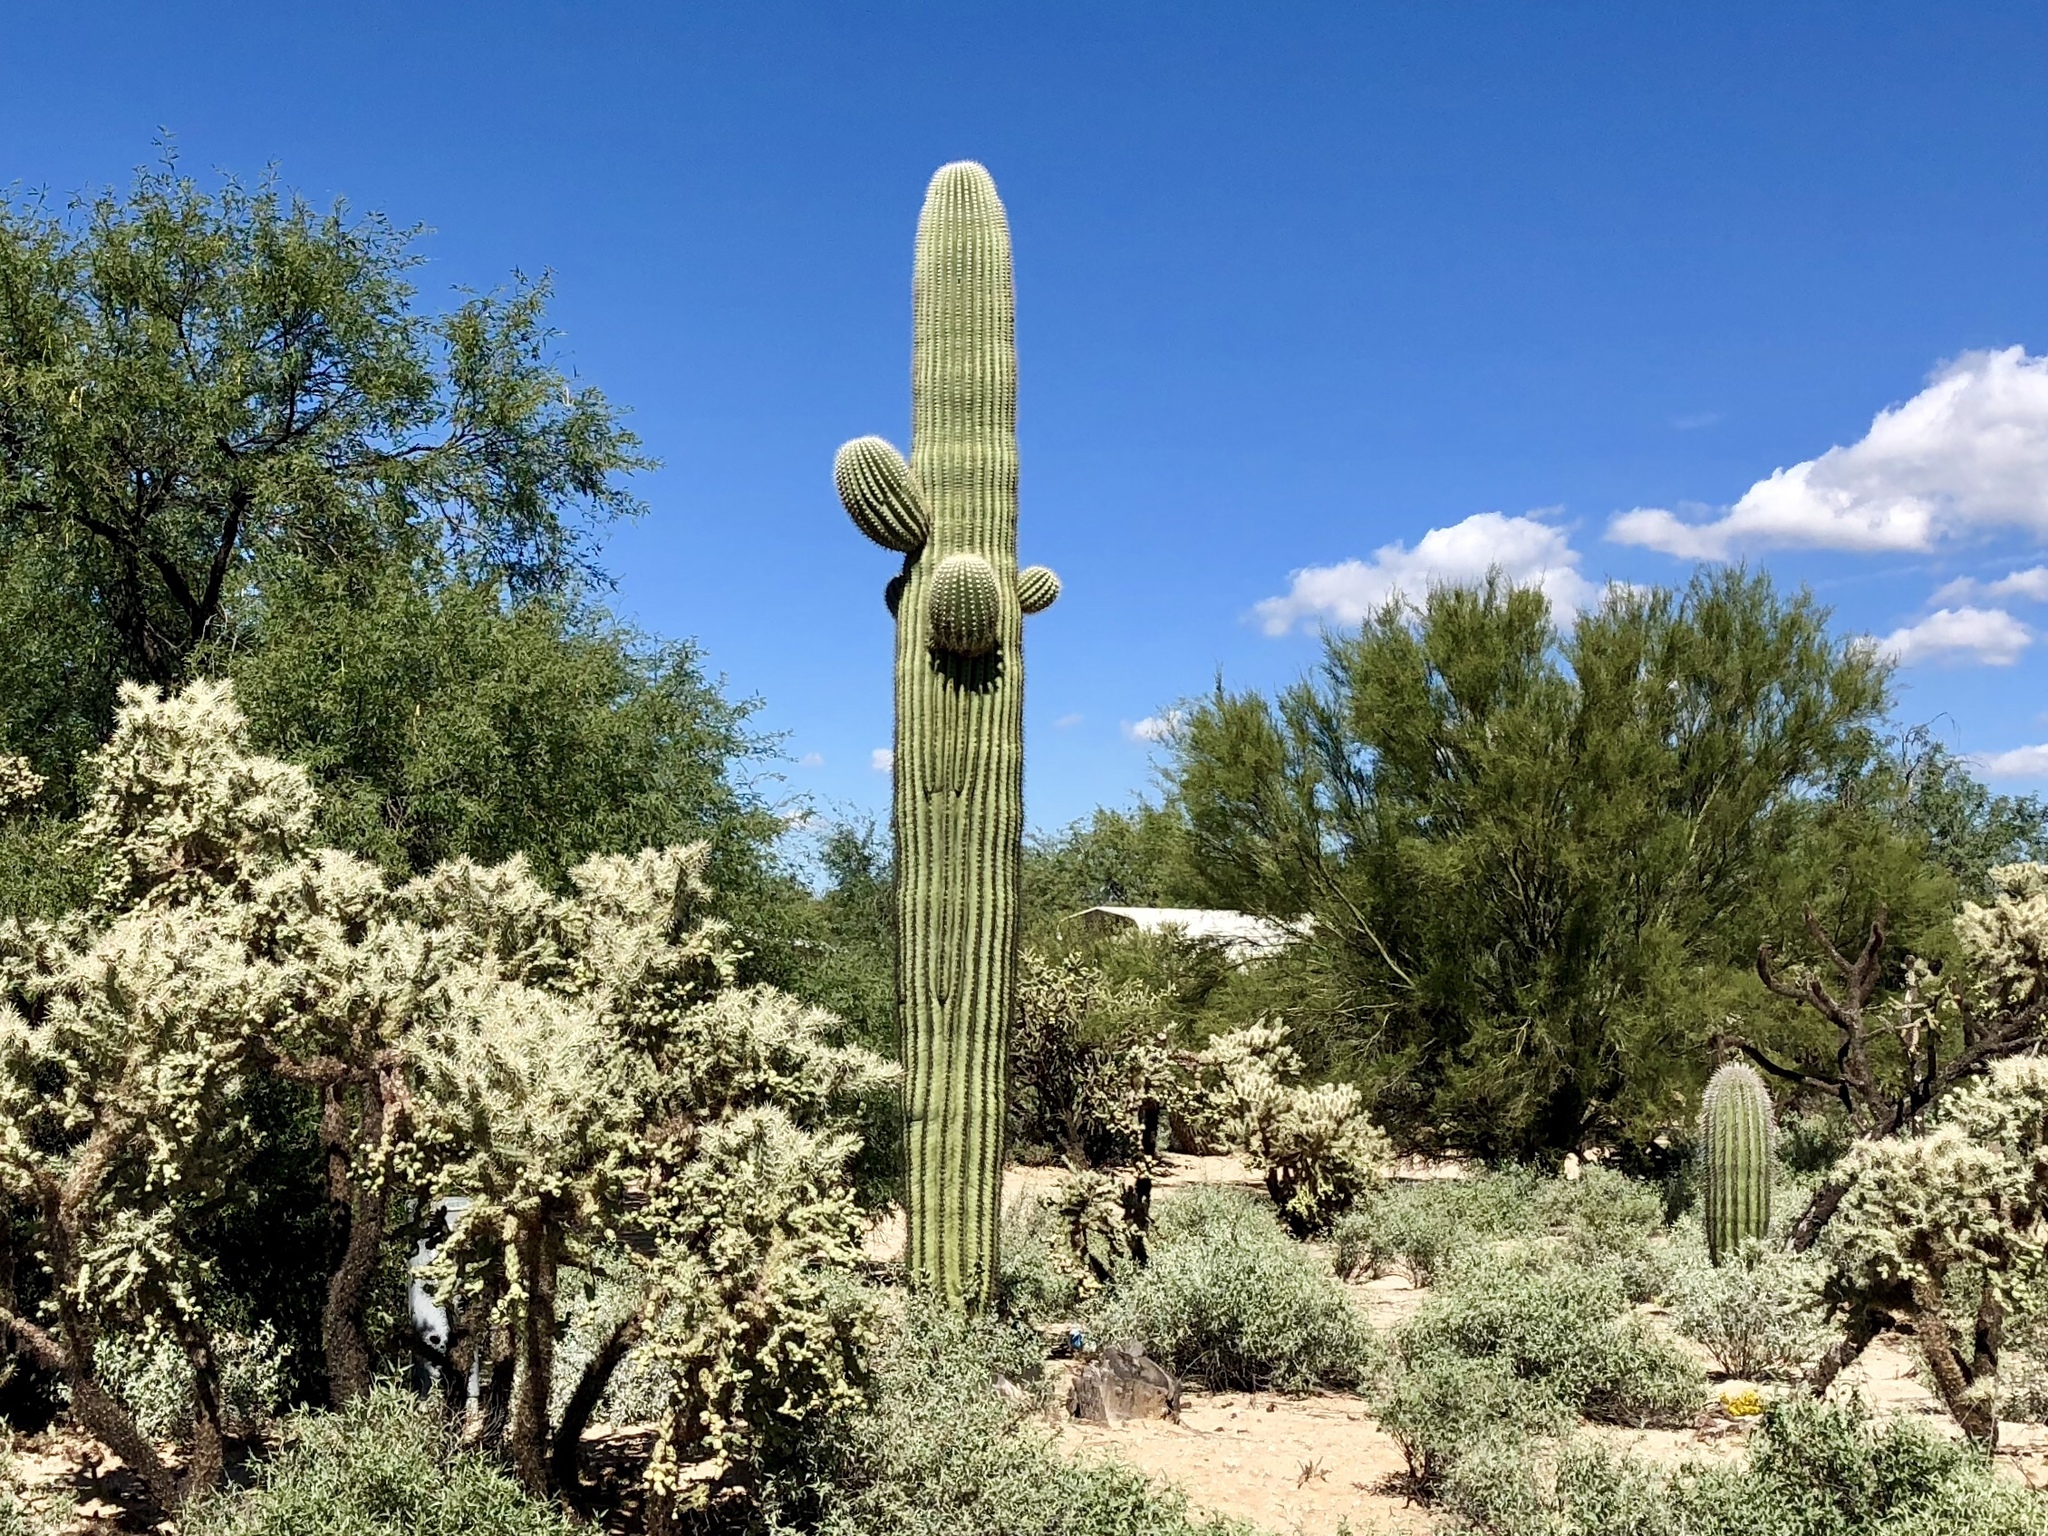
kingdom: Plantae
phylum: Tracheophyta
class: Magnoliopsida
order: Caryophyllales
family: Cactaceae
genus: Carnegiea
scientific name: Carnegiea gigantea
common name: Saguaro
